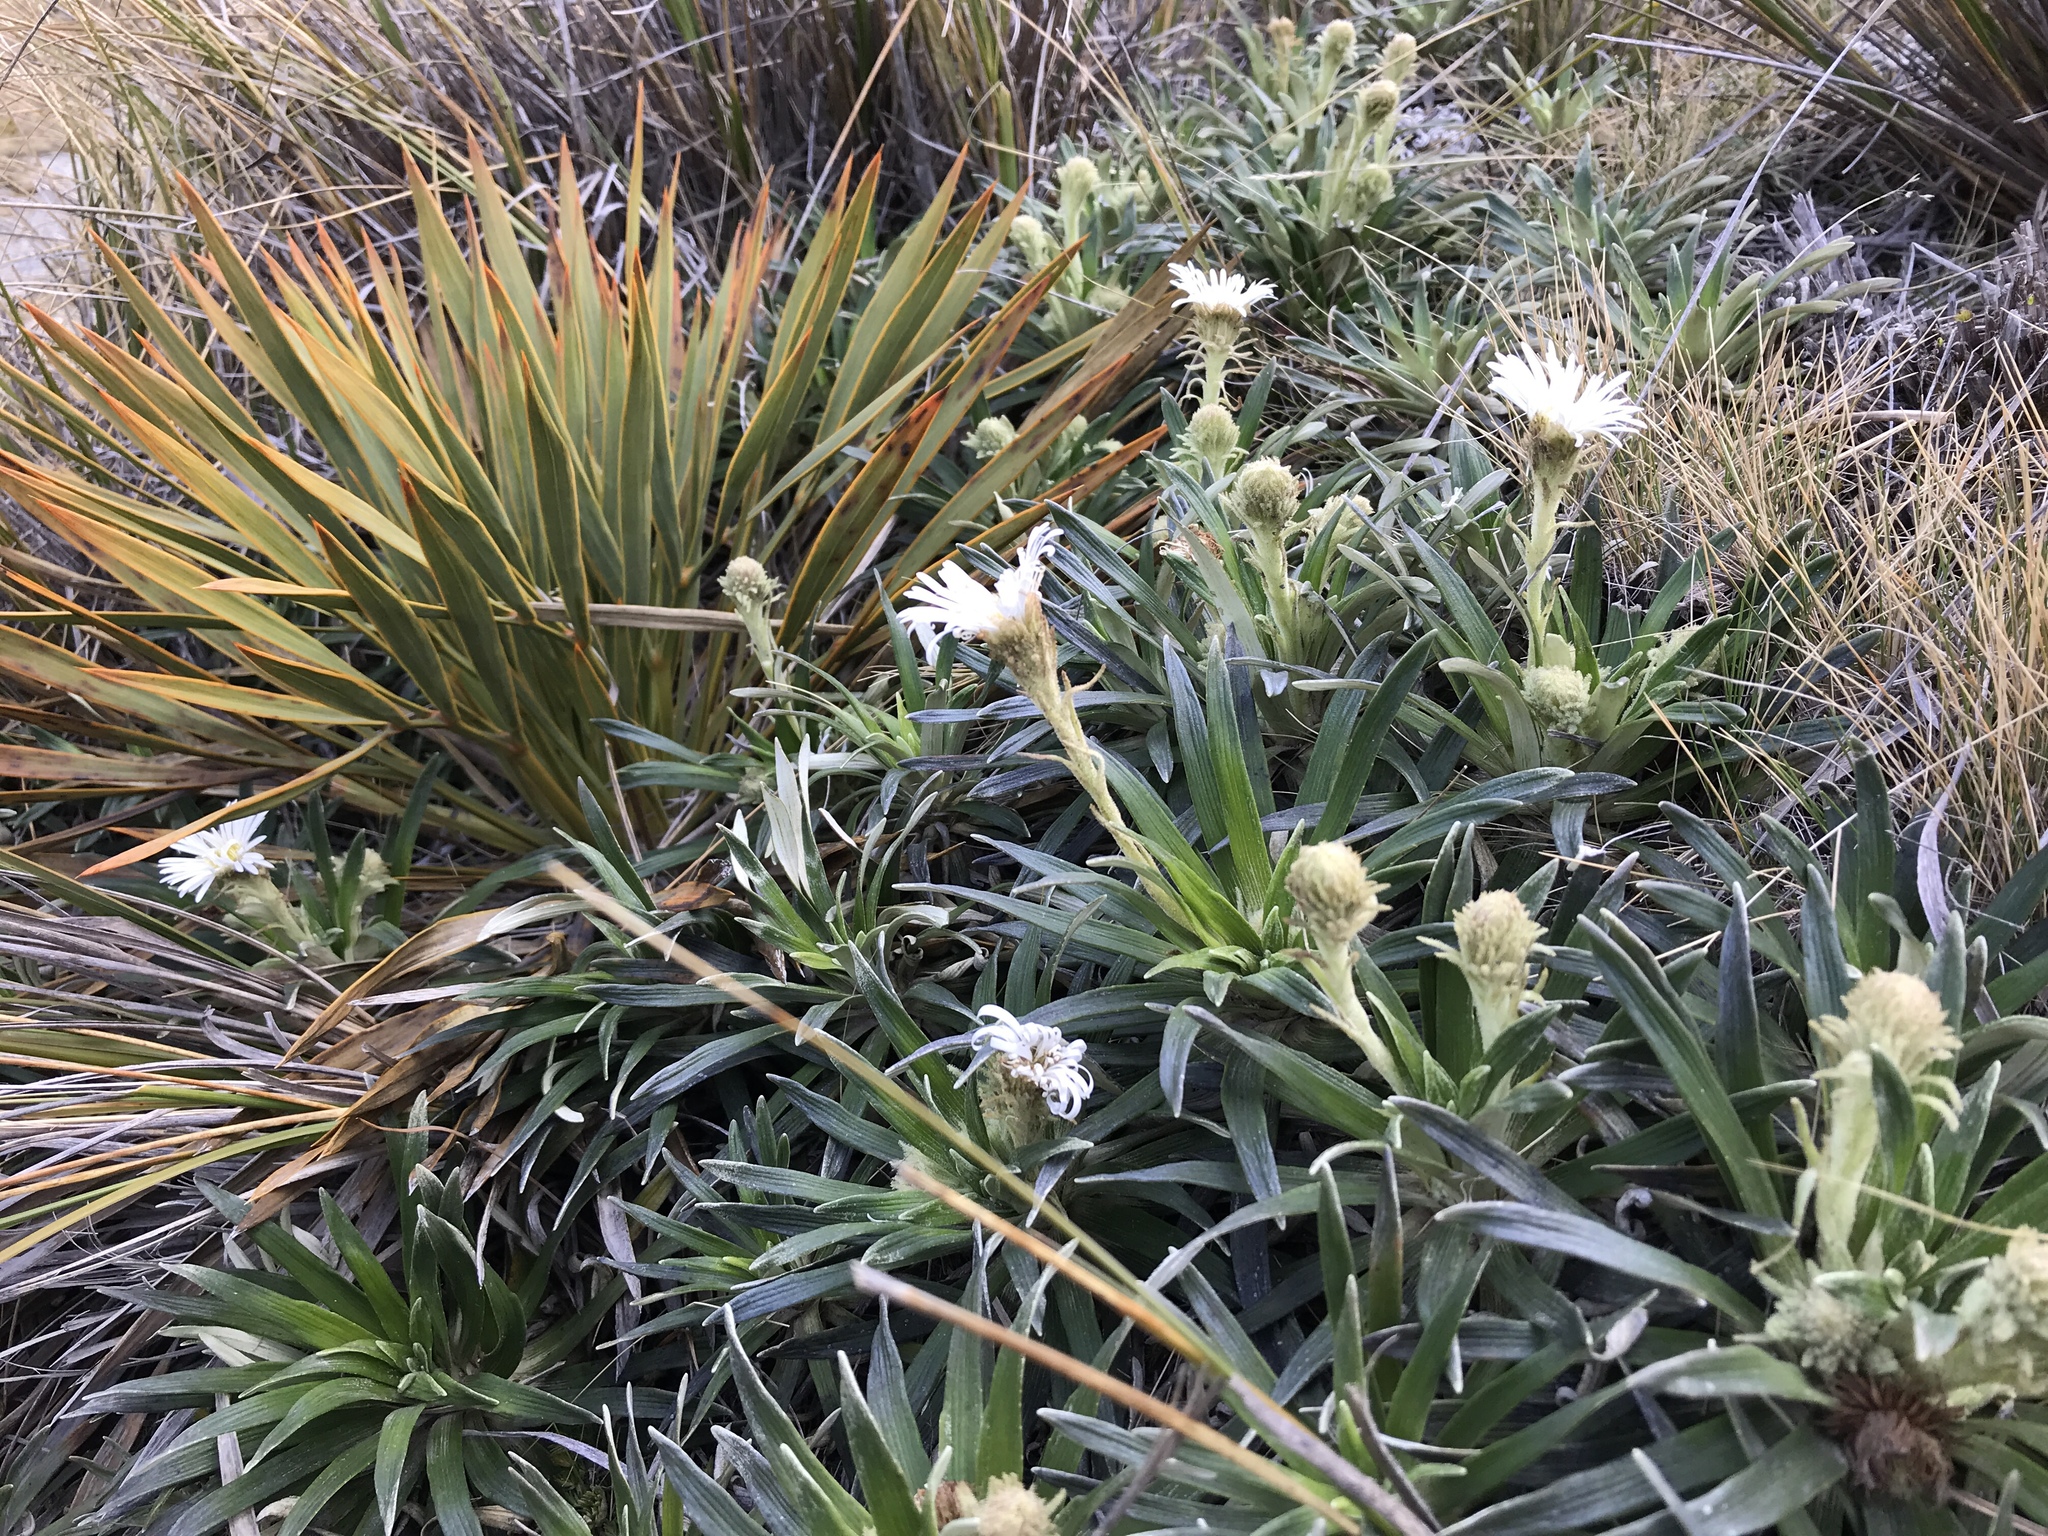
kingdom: Plantae
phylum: Tracheophyta
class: Magnoliopsida
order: Asterales
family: Asteraceae
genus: Celmisia
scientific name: Celmisia viscosa
